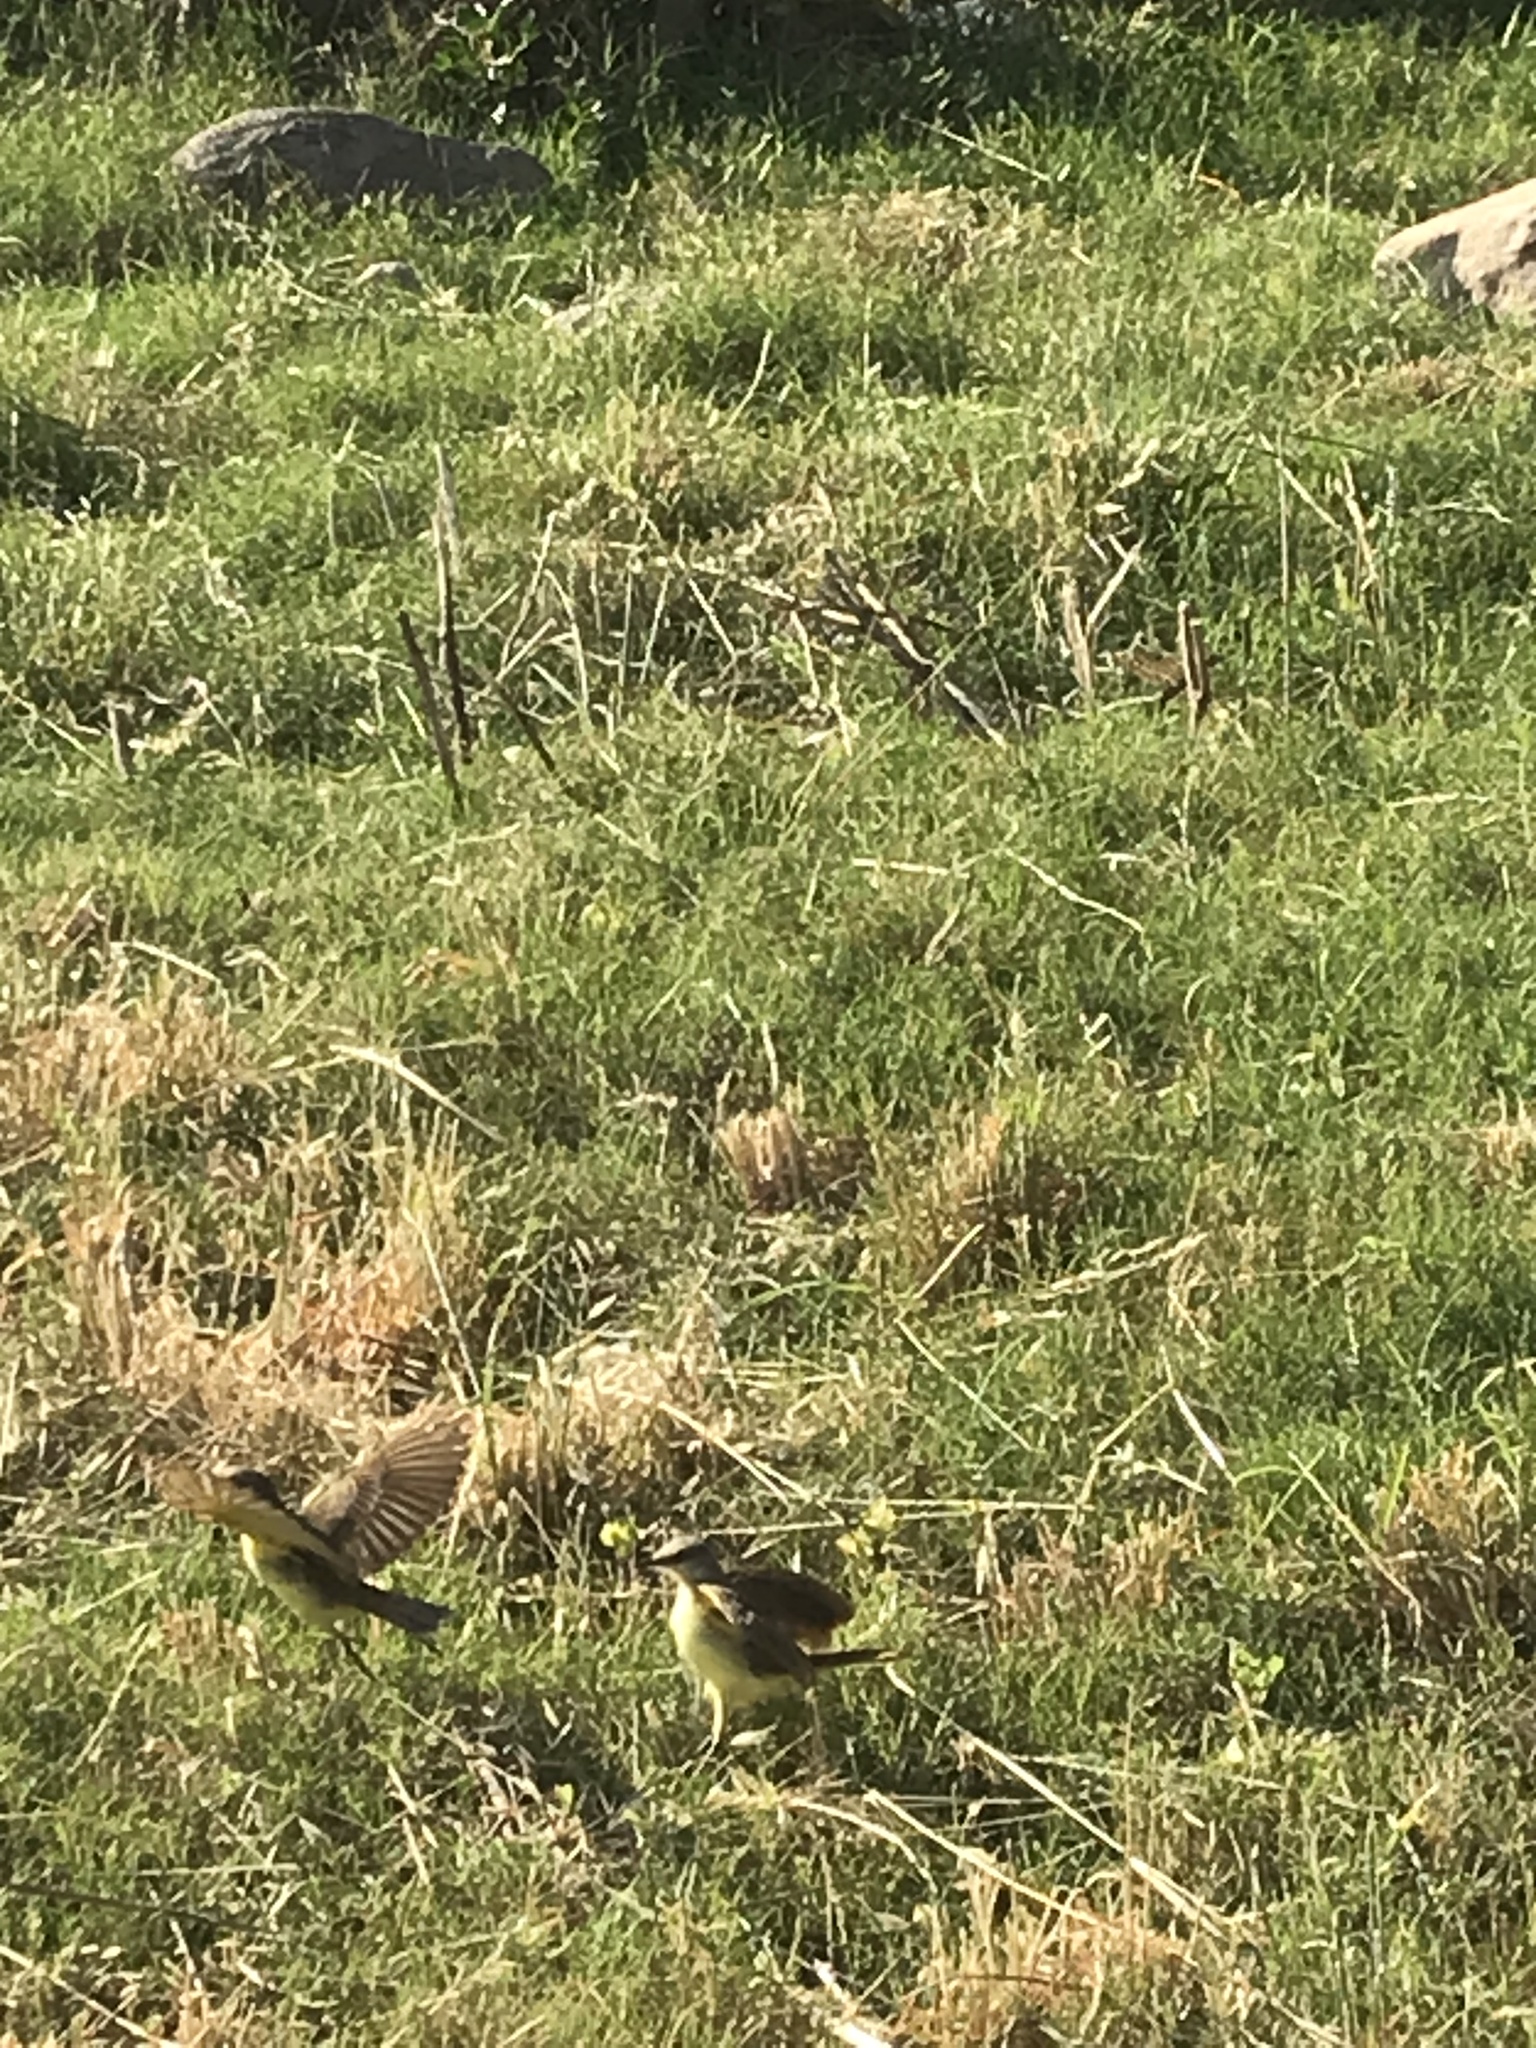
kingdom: Animalia
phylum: Chordata
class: Aves
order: Passeriformes
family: Tyrannidae
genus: Machetornis
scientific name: Machetornis rixosa
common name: Cattle tyrant
